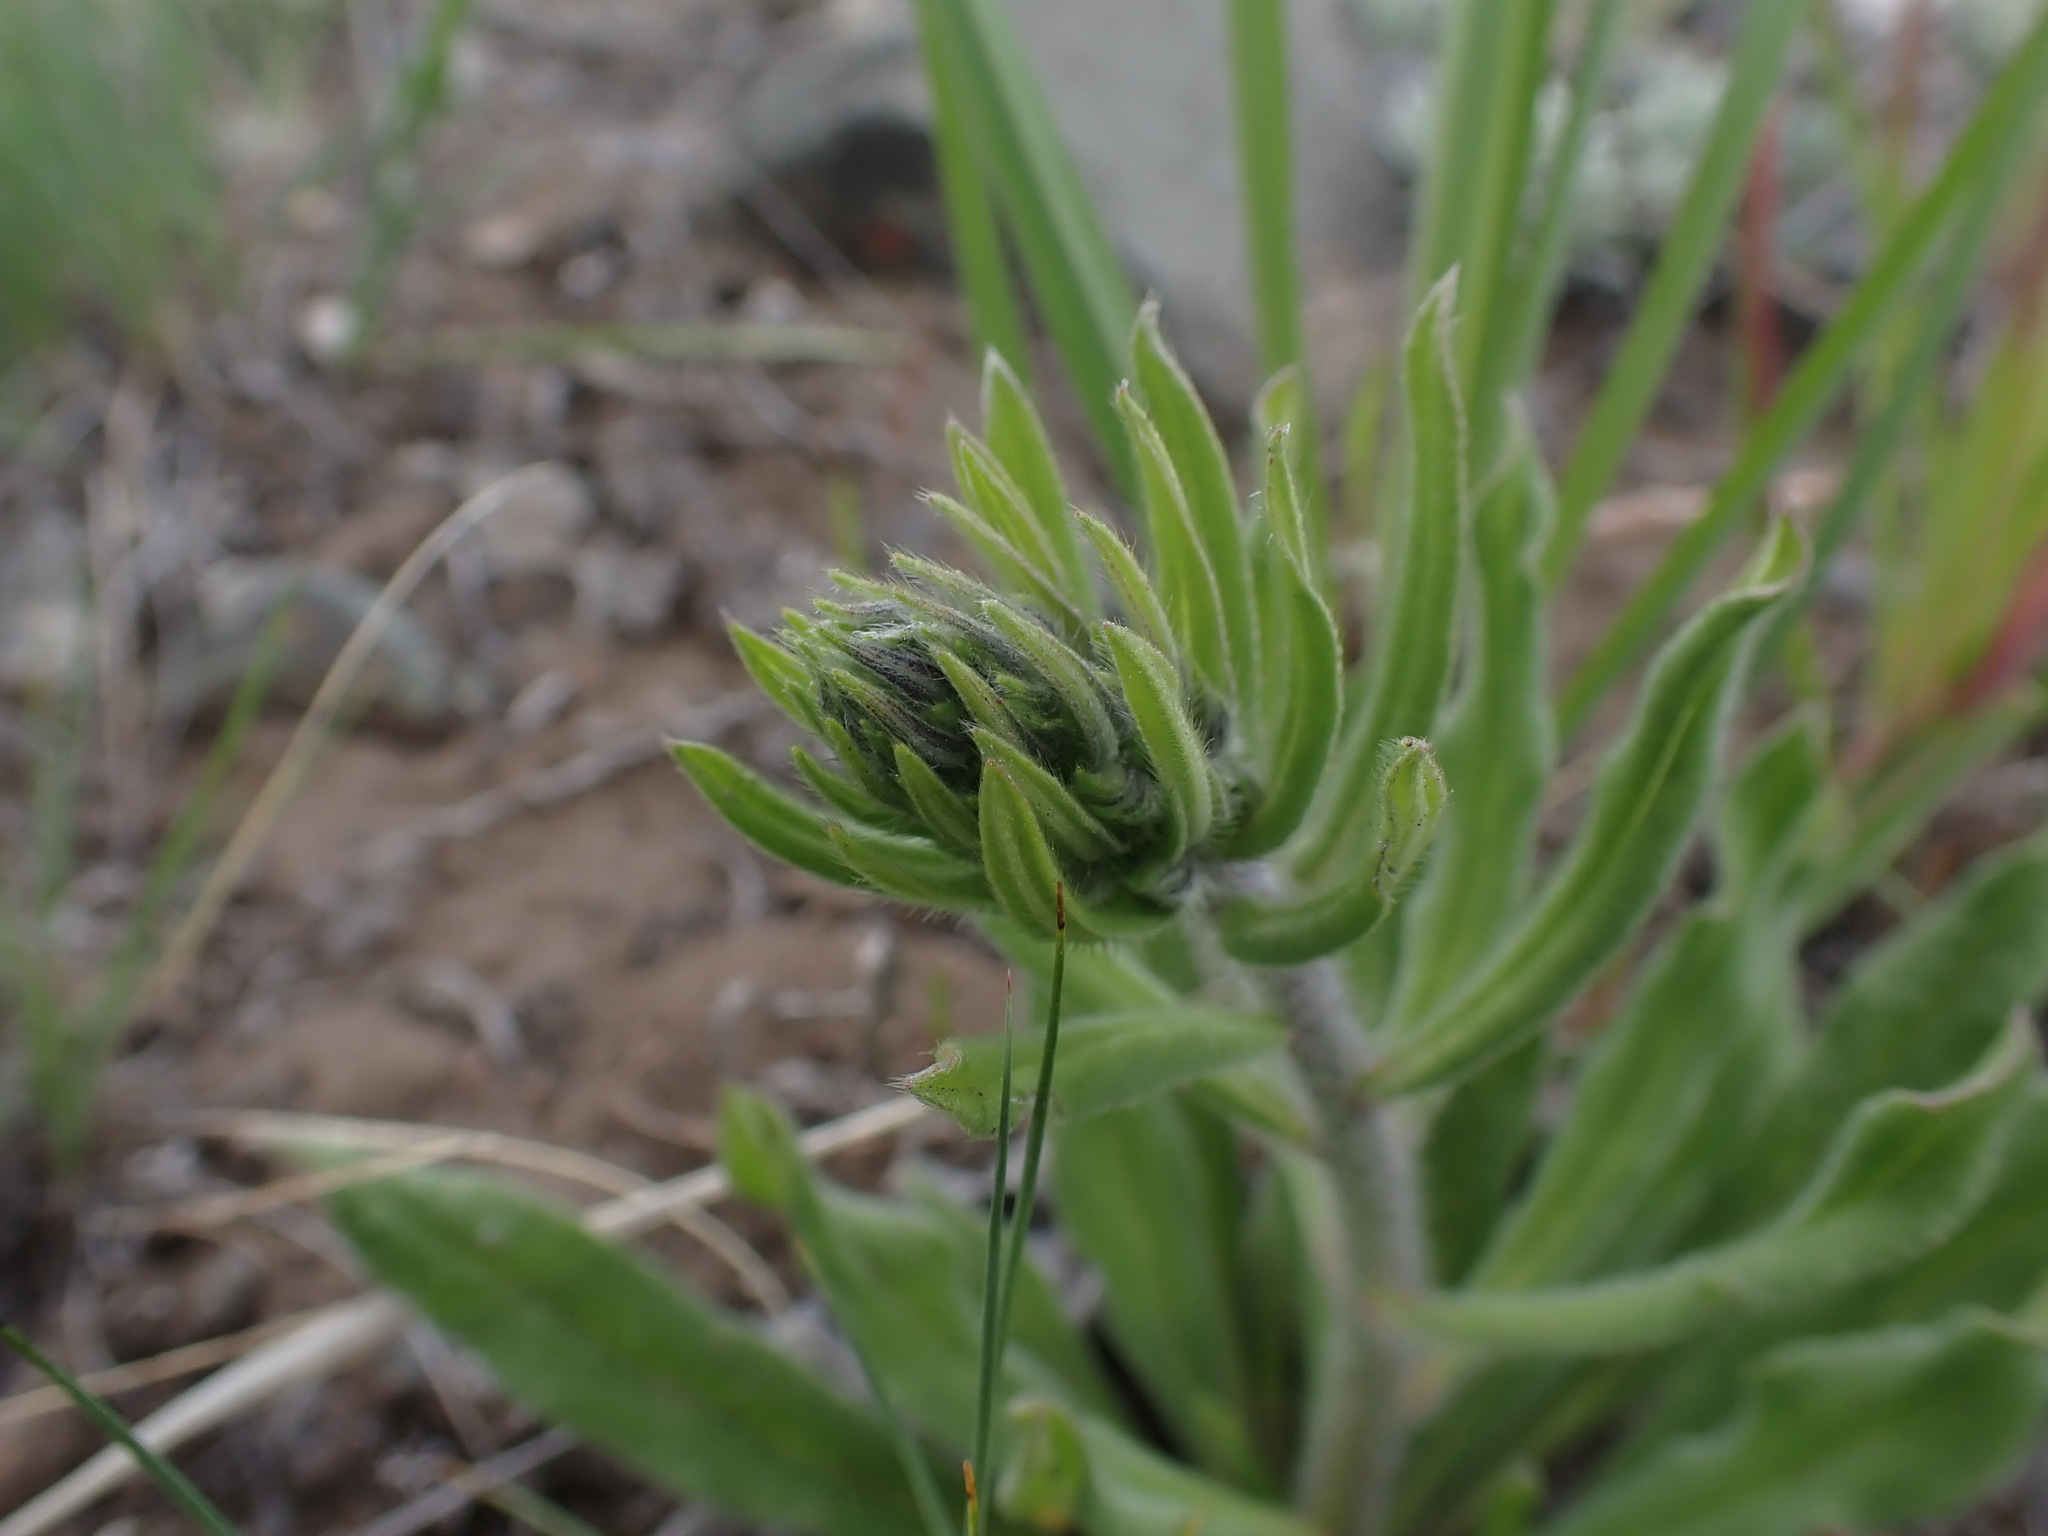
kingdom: Plantae
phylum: Tracheophyta
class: Magnoliopsida
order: Boraginales
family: Boraginaceae
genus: Lithospermum
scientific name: Lithospermum ruderale
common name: Western gromwell
